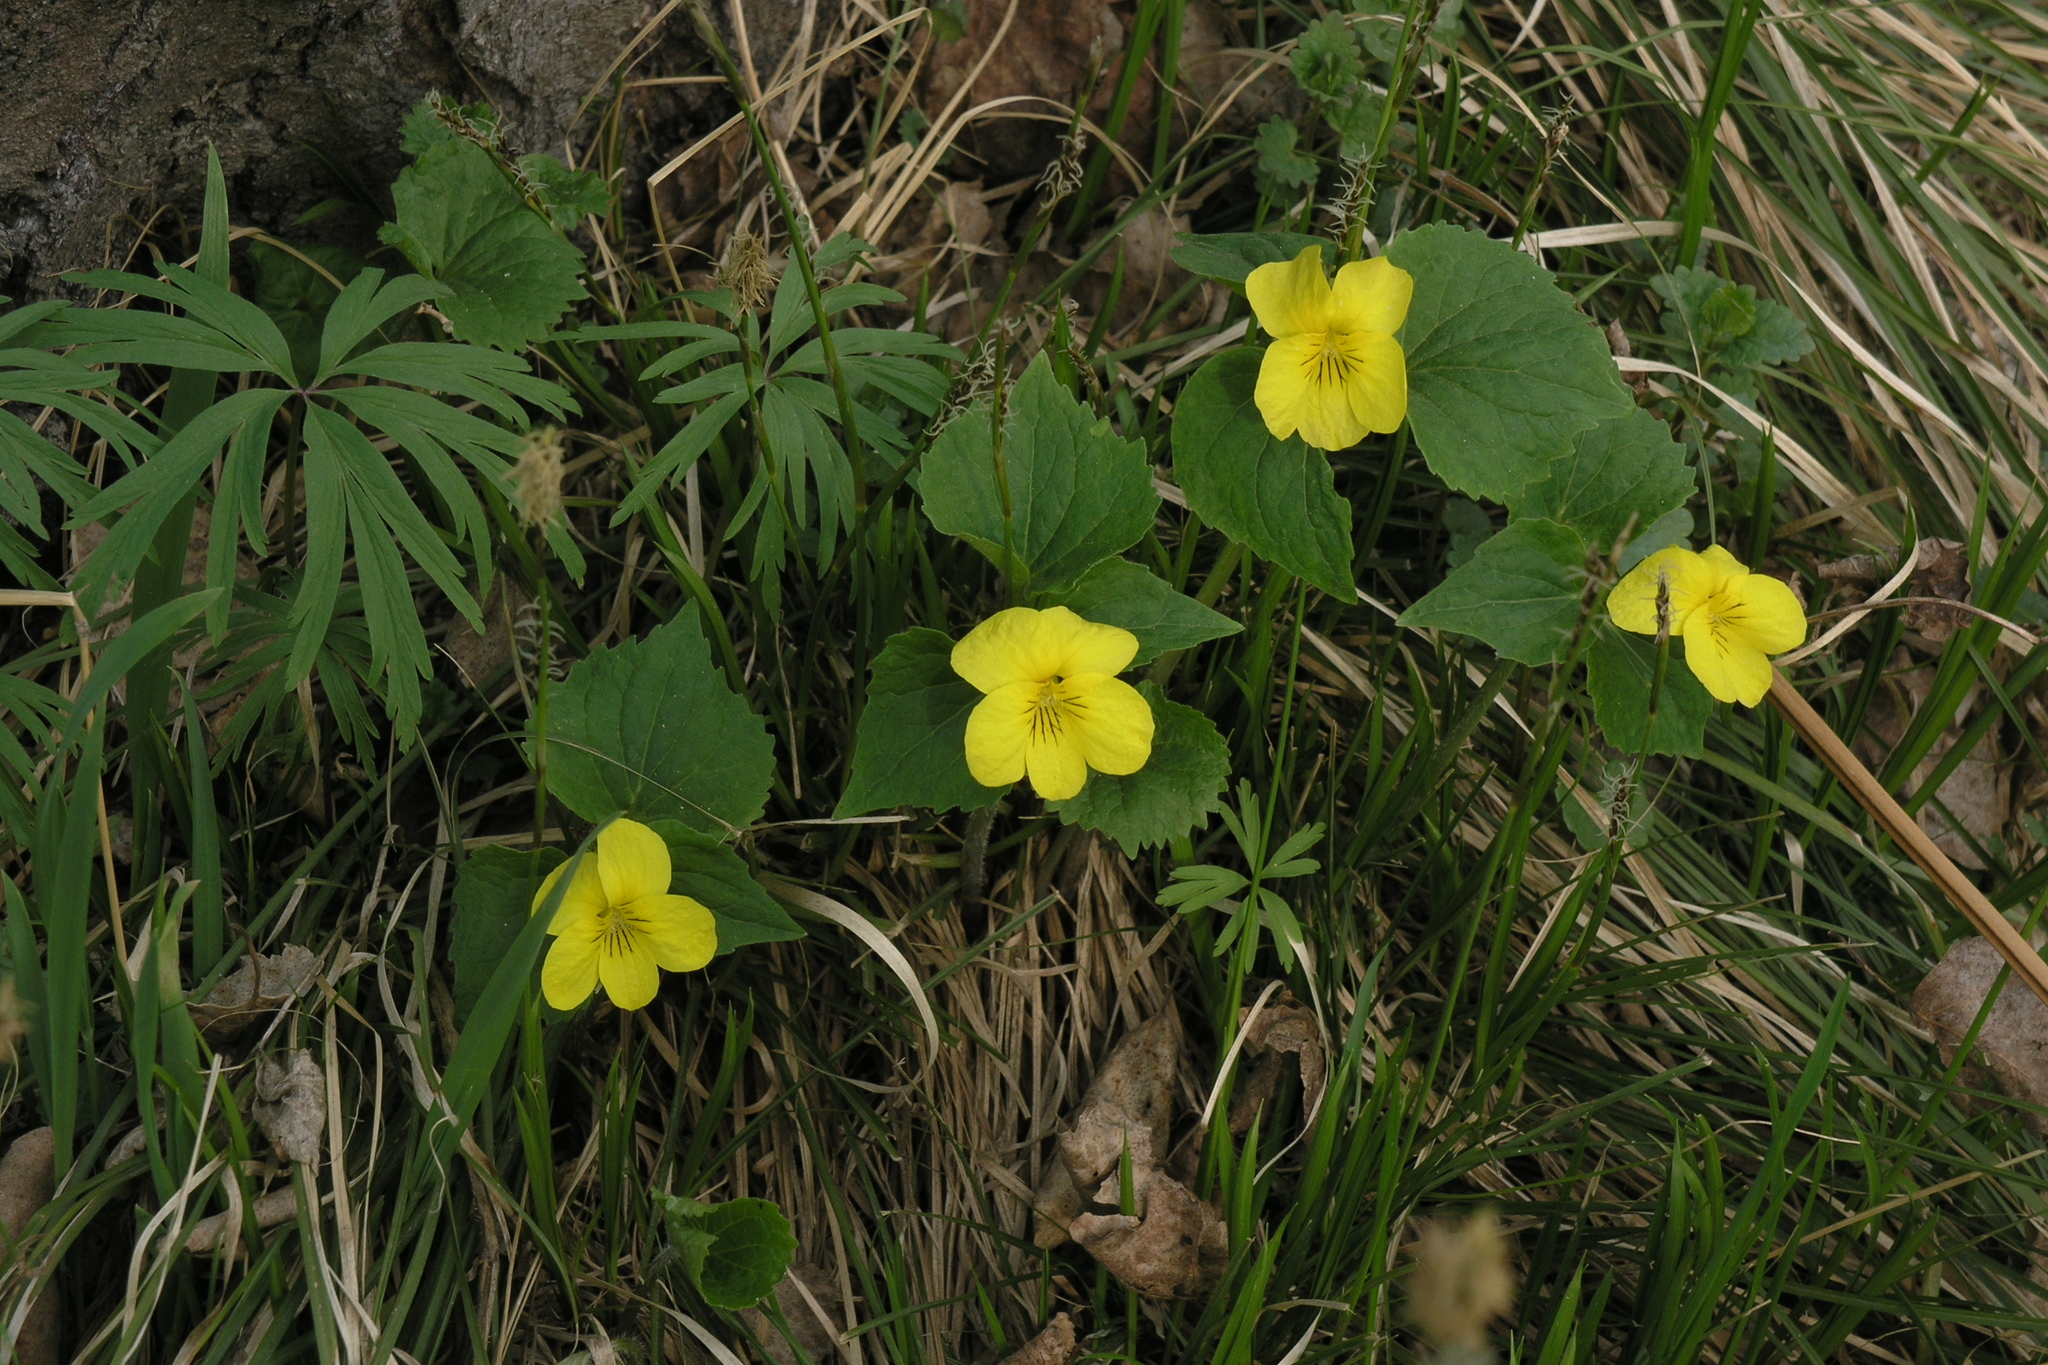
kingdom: Plantae
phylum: Tracheophyta
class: Magnoliopsida
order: Malpighiales
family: Violaceae
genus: Viola
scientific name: Viola uniflora
